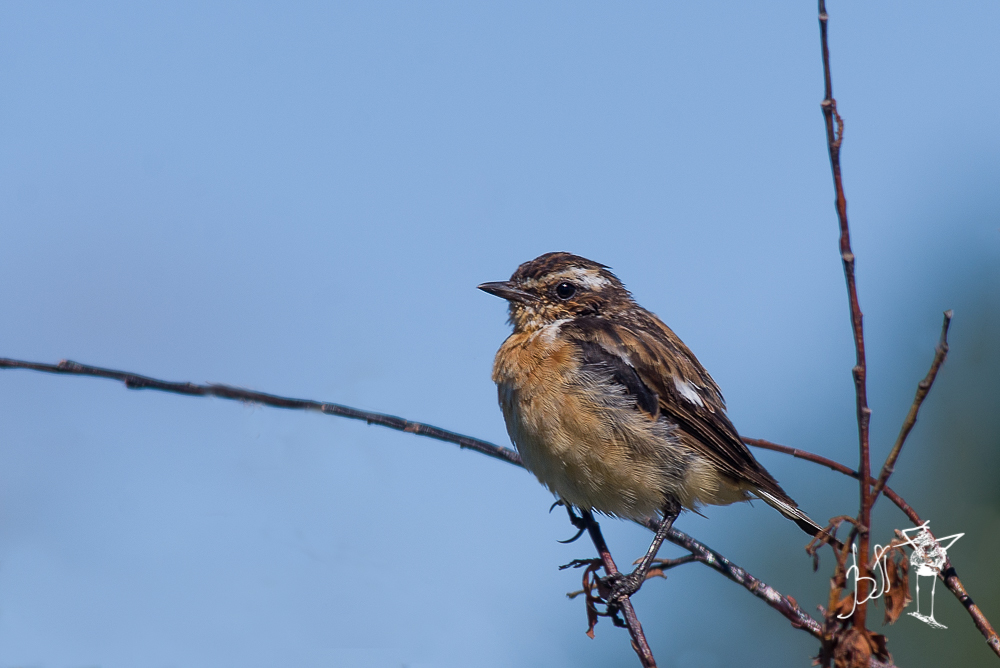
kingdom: Animalia
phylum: Chordata
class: Aves
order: Passeriformes
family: Muscicapidae
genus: Saxicola
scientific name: Saxicola rubetra
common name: Whinchat
